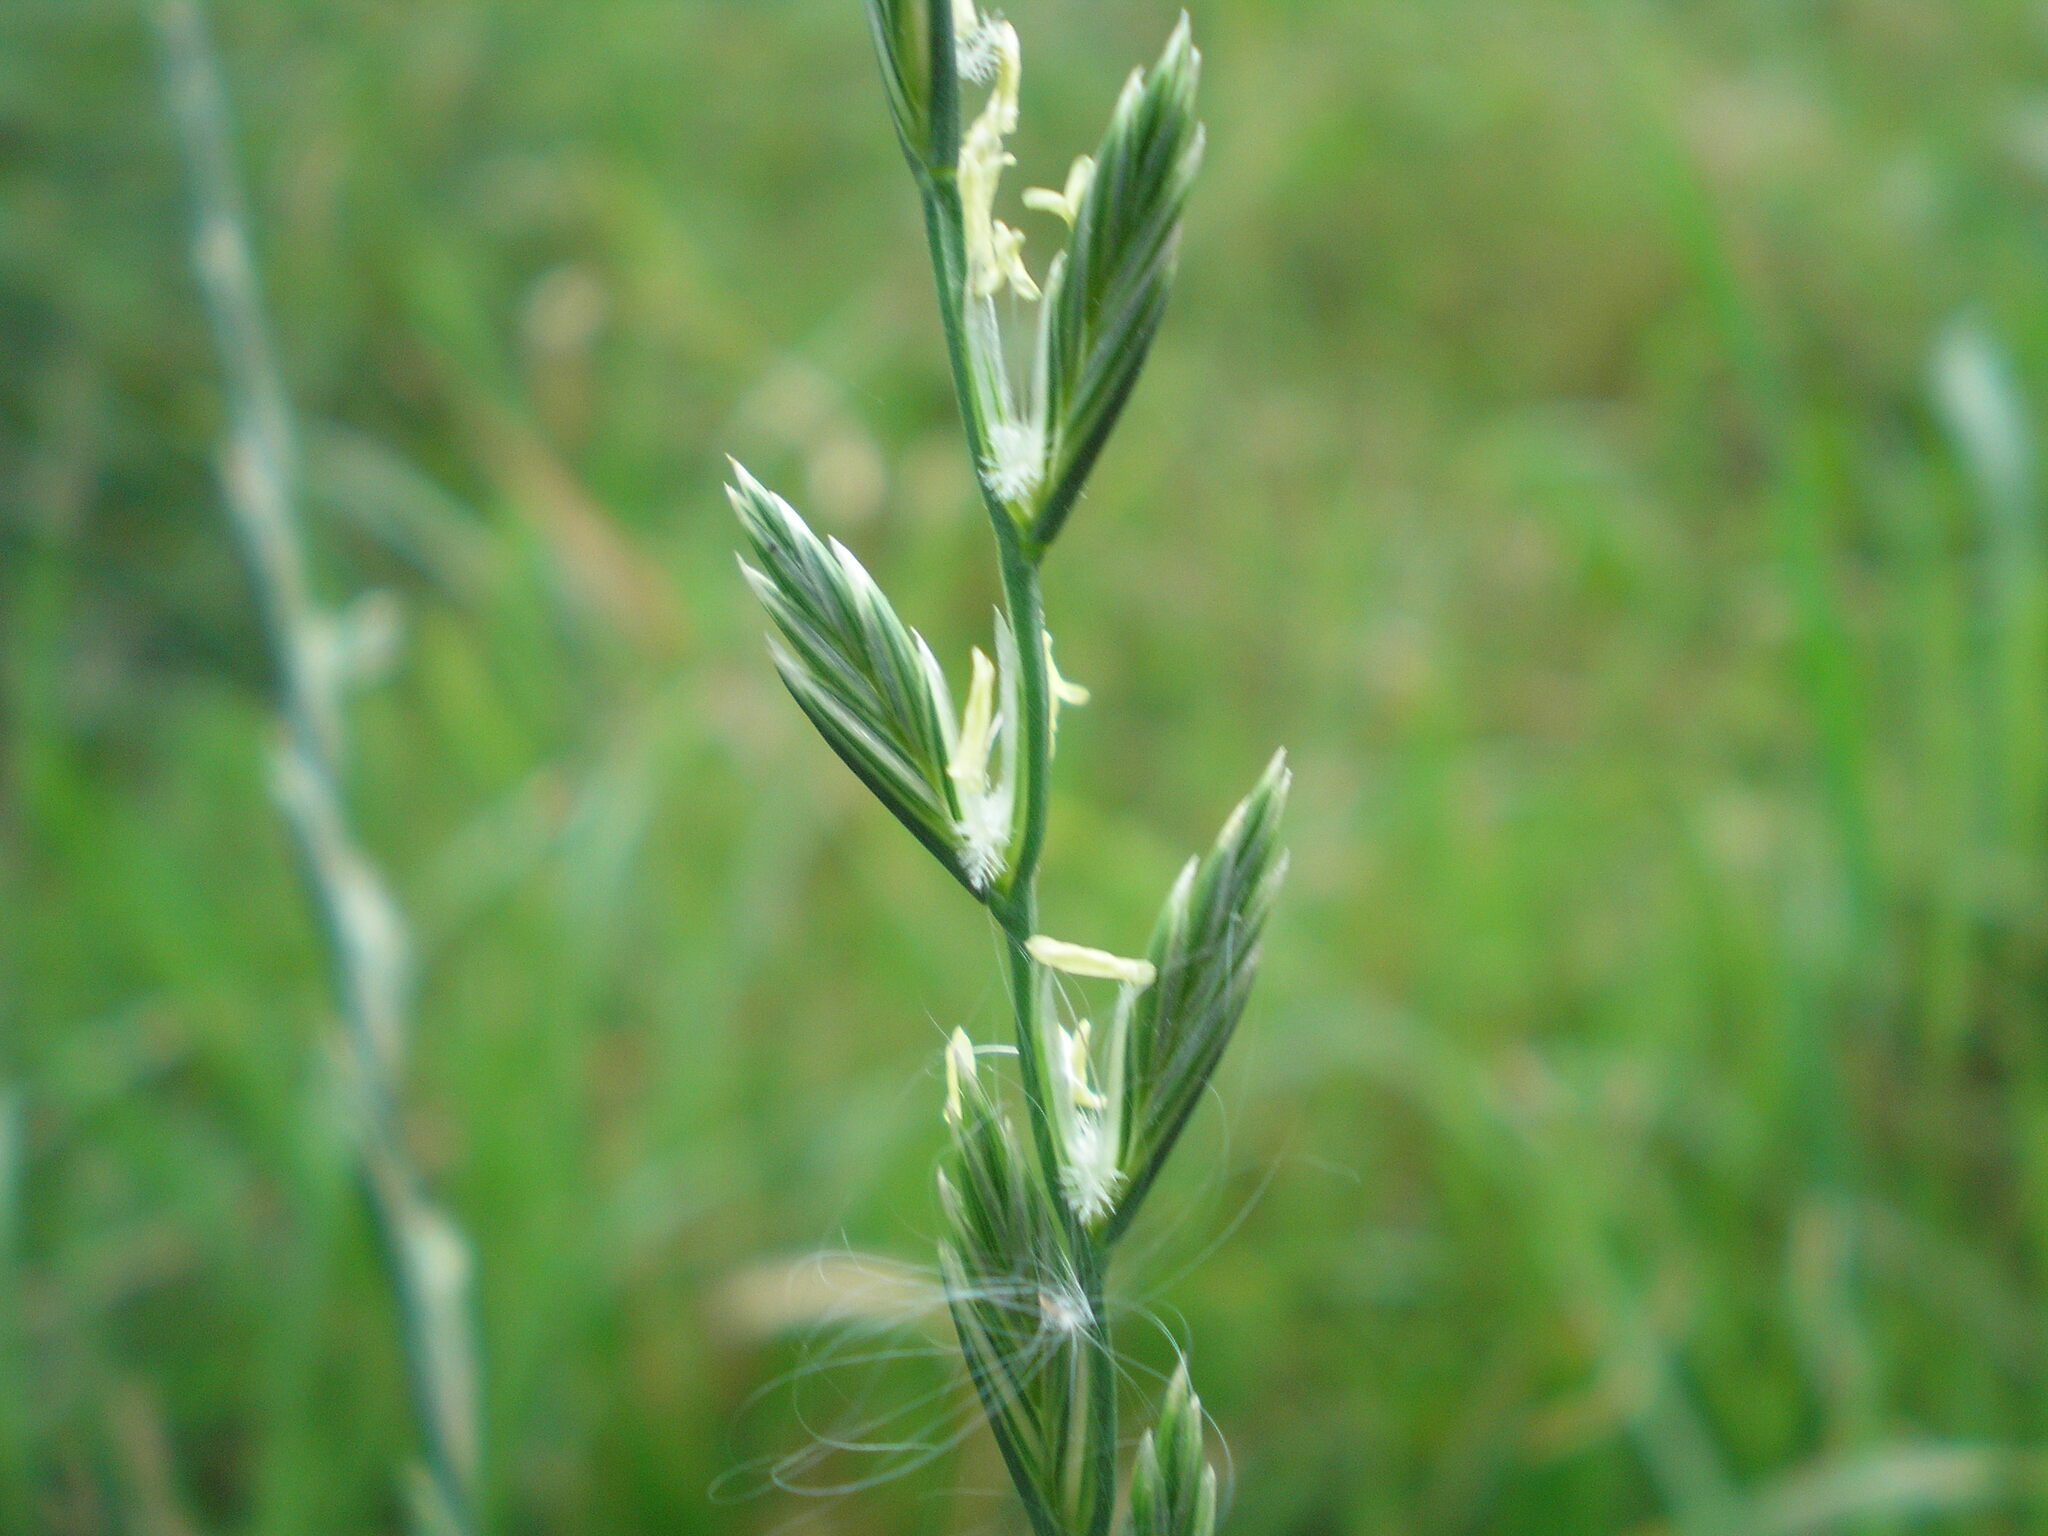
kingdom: Plantae
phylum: Tracheophyta
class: Liliopsida
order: Poales
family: Poaceae
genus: Lolium
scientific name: Lolium perenne
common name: Perennial ryegrass
